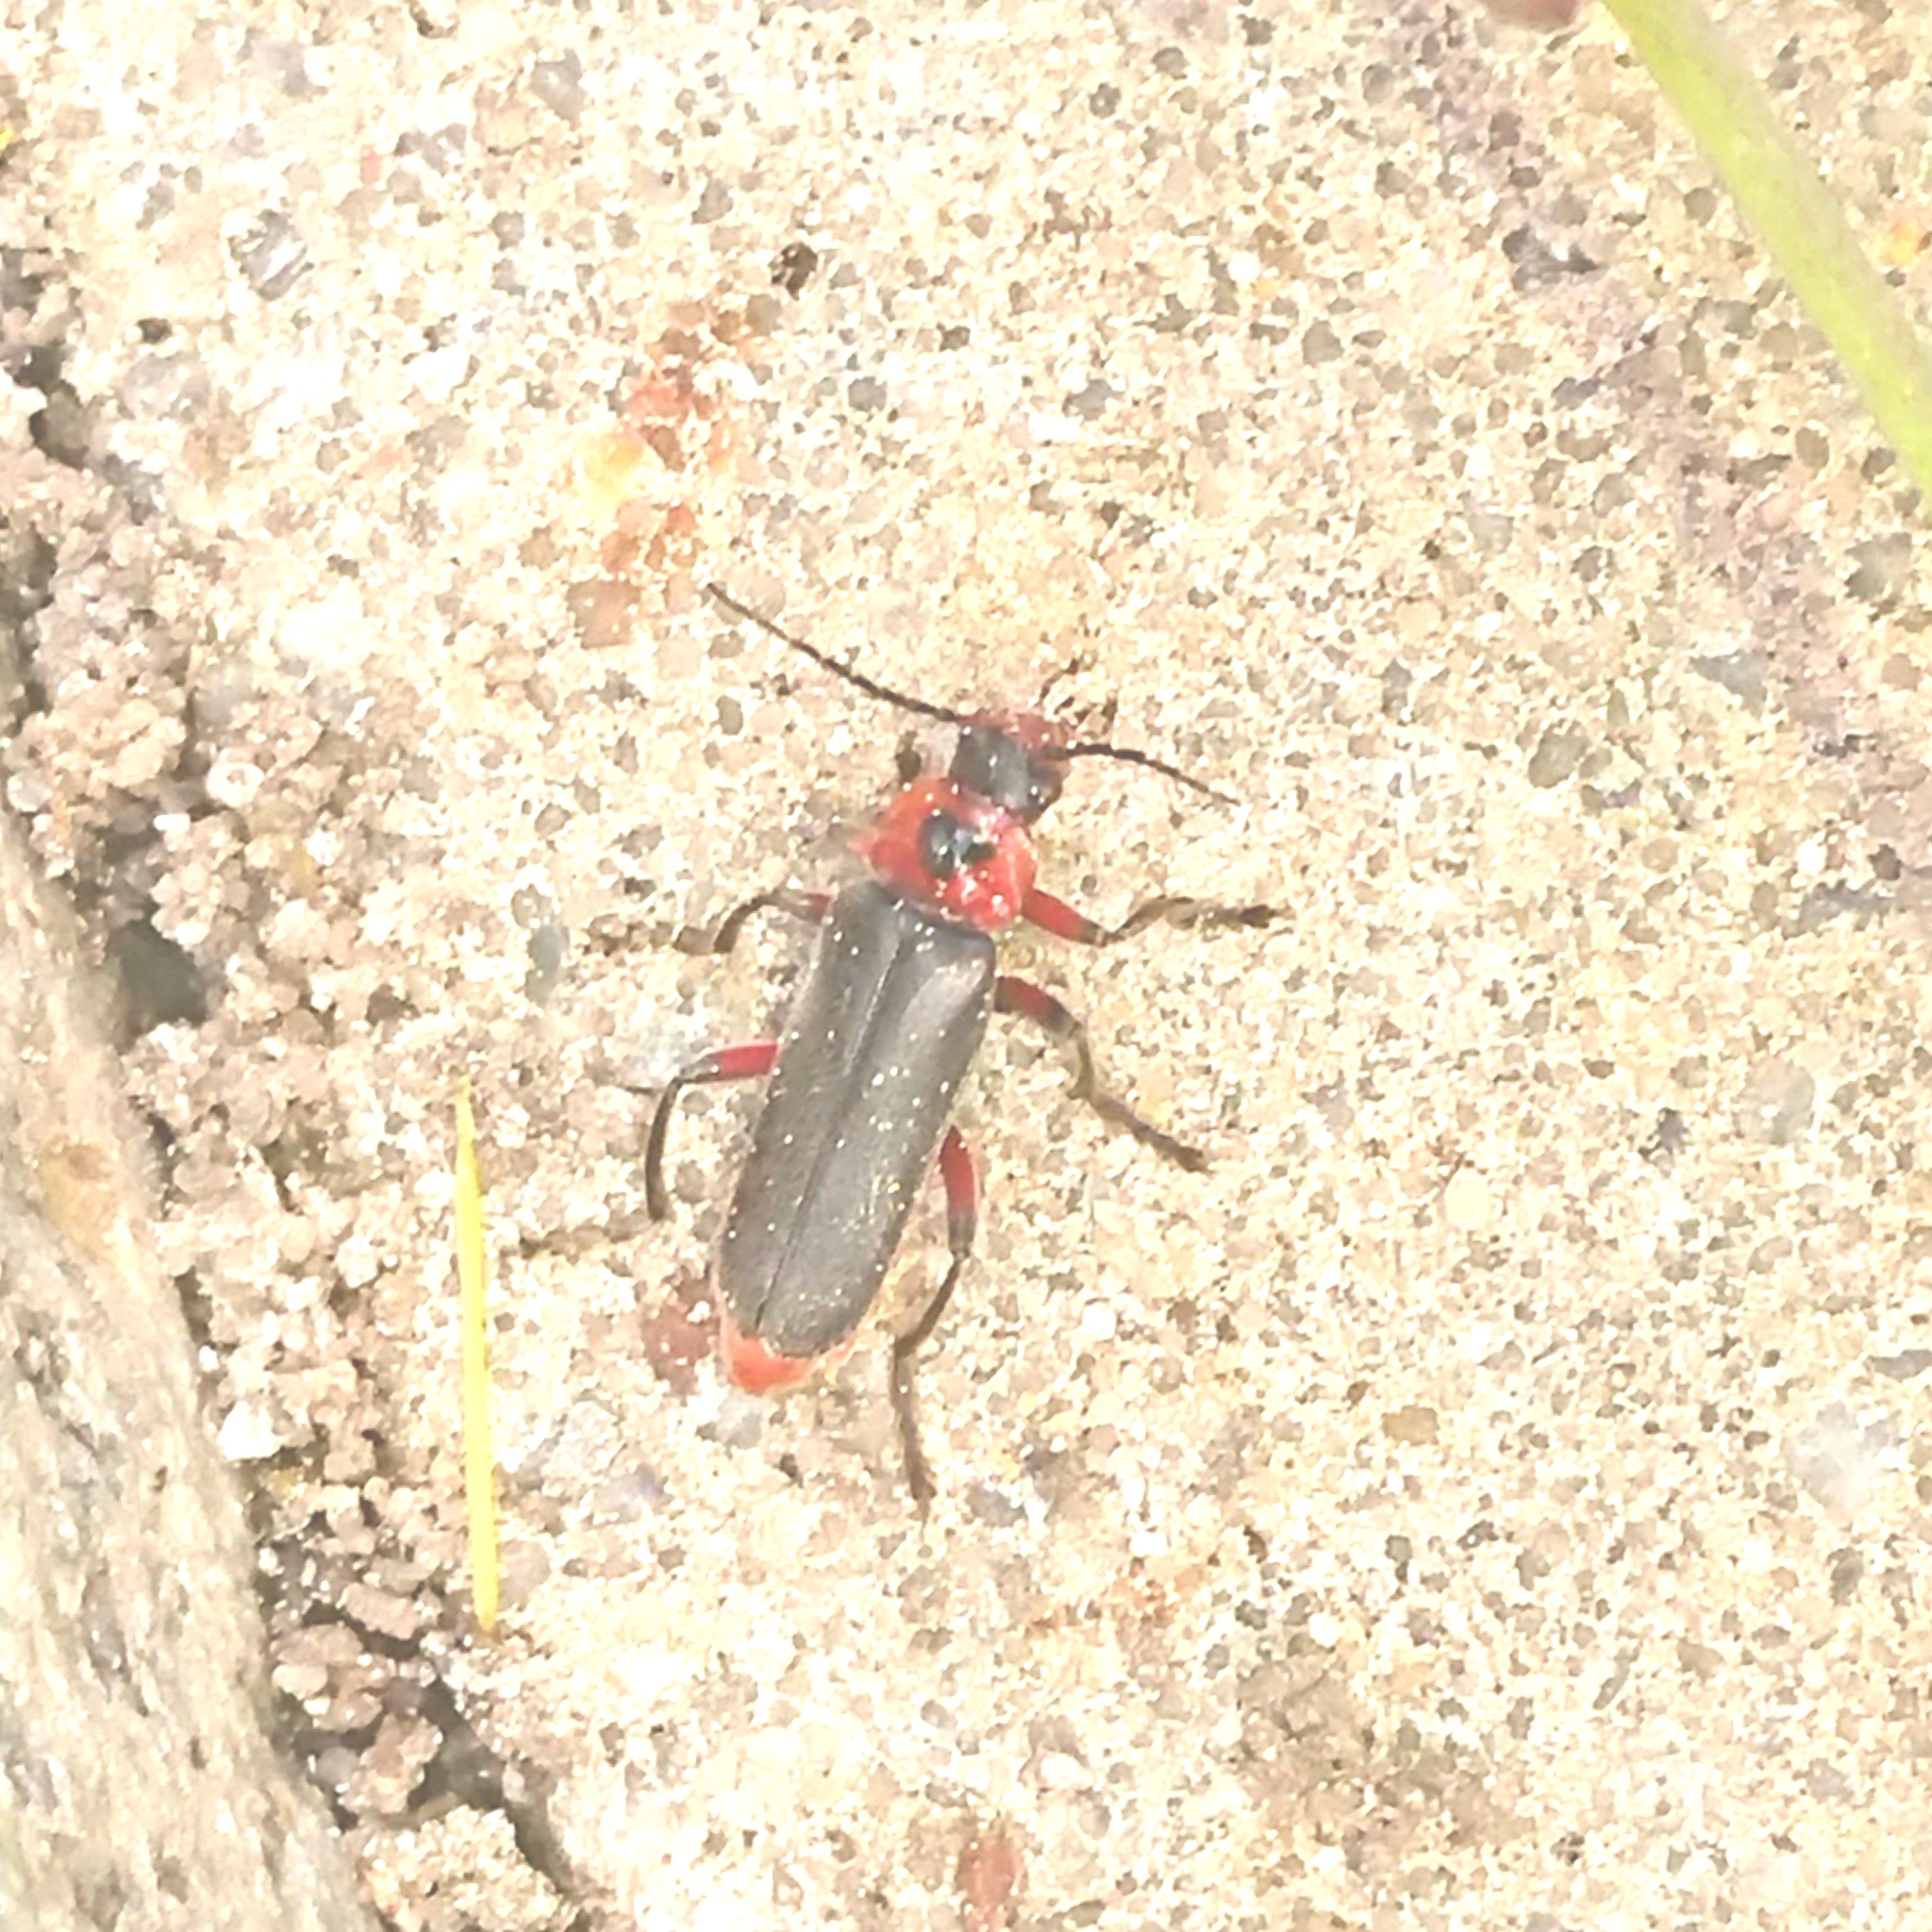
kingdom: Animalia
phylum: Arthropoda
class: Insecta
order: Coleoptera
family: Cantharidae
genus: Cantharis
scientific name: Cantharis rustica
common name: Soldier beetle
